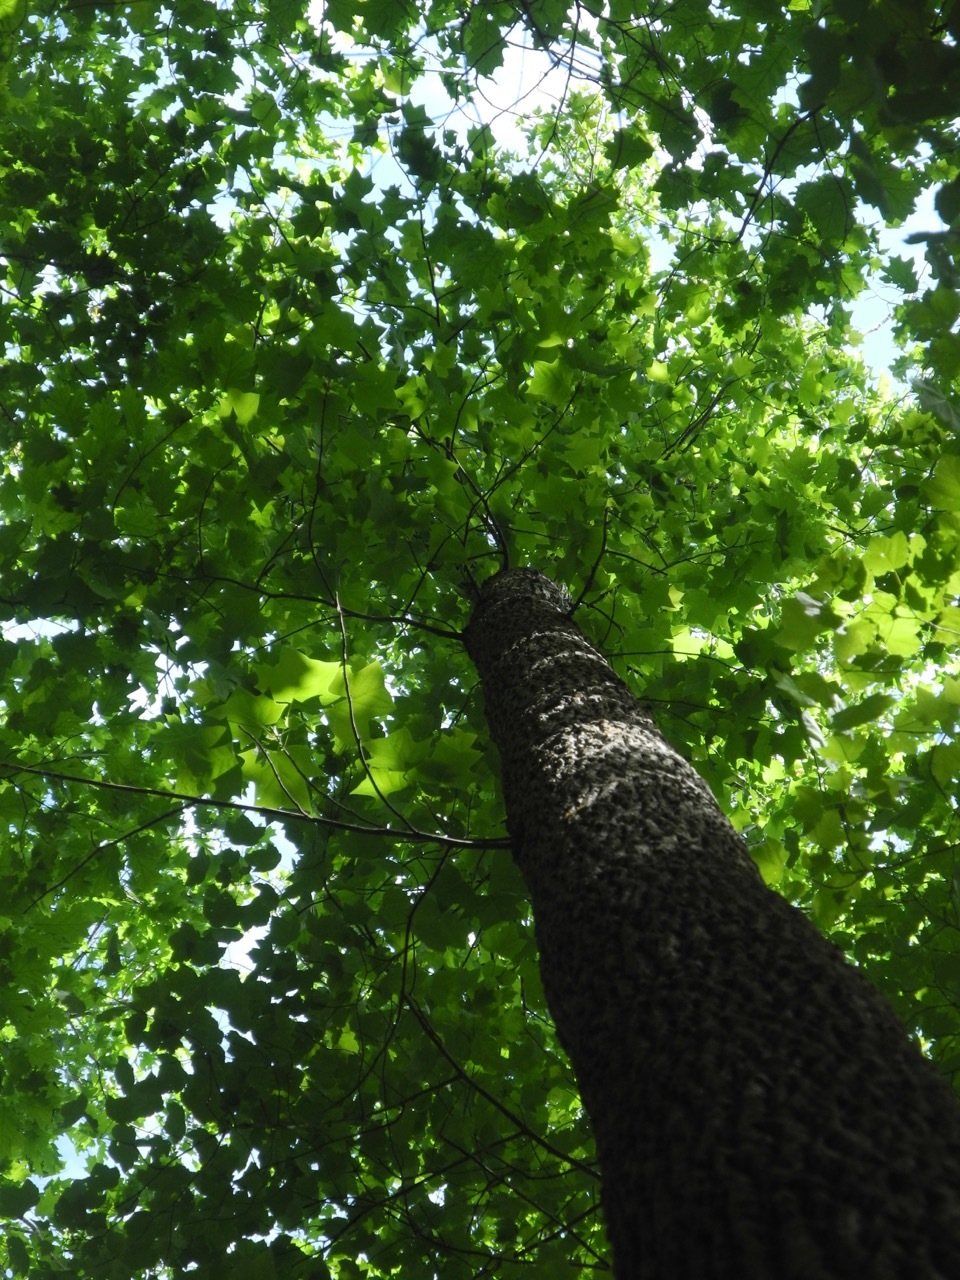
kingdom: Plantae
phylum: Tracheophyta
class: Magnoliopsida
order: Magnoliales
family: Magnoliaceae
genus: Liriodendron
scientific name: Liriodendron tulipifera
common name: Tulip tree
